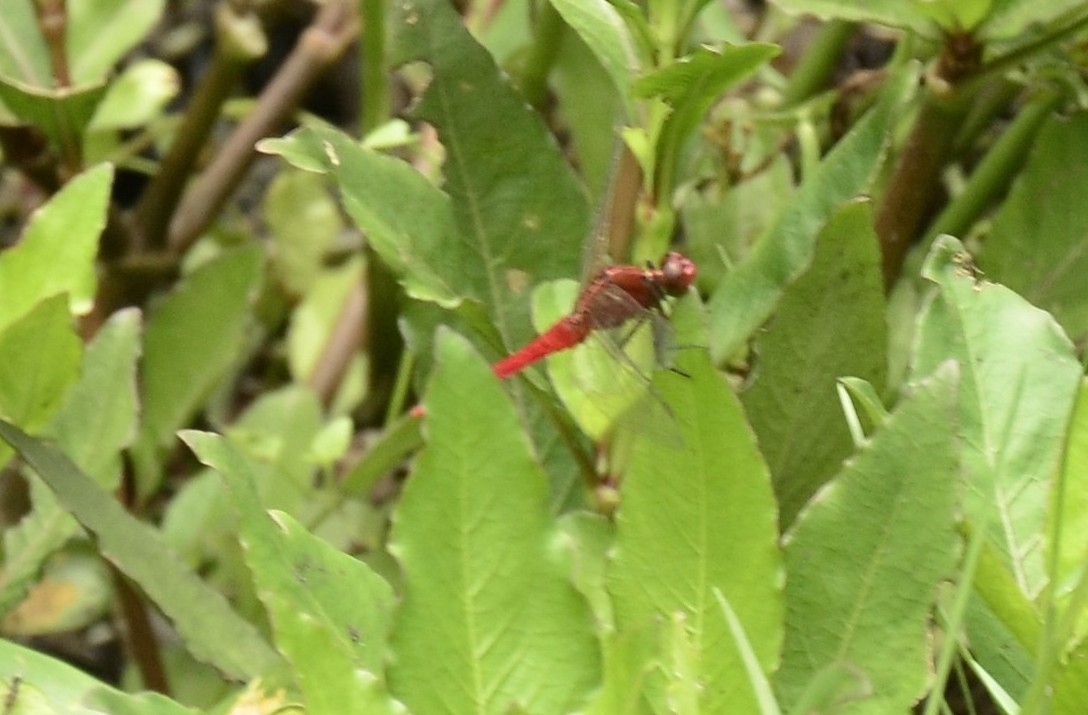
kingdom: Animalia
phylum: Arthropoda
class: Insecta
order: Odonata
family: Libellulidae
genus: Rhodothemis
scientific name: Rhodothemis rufa
